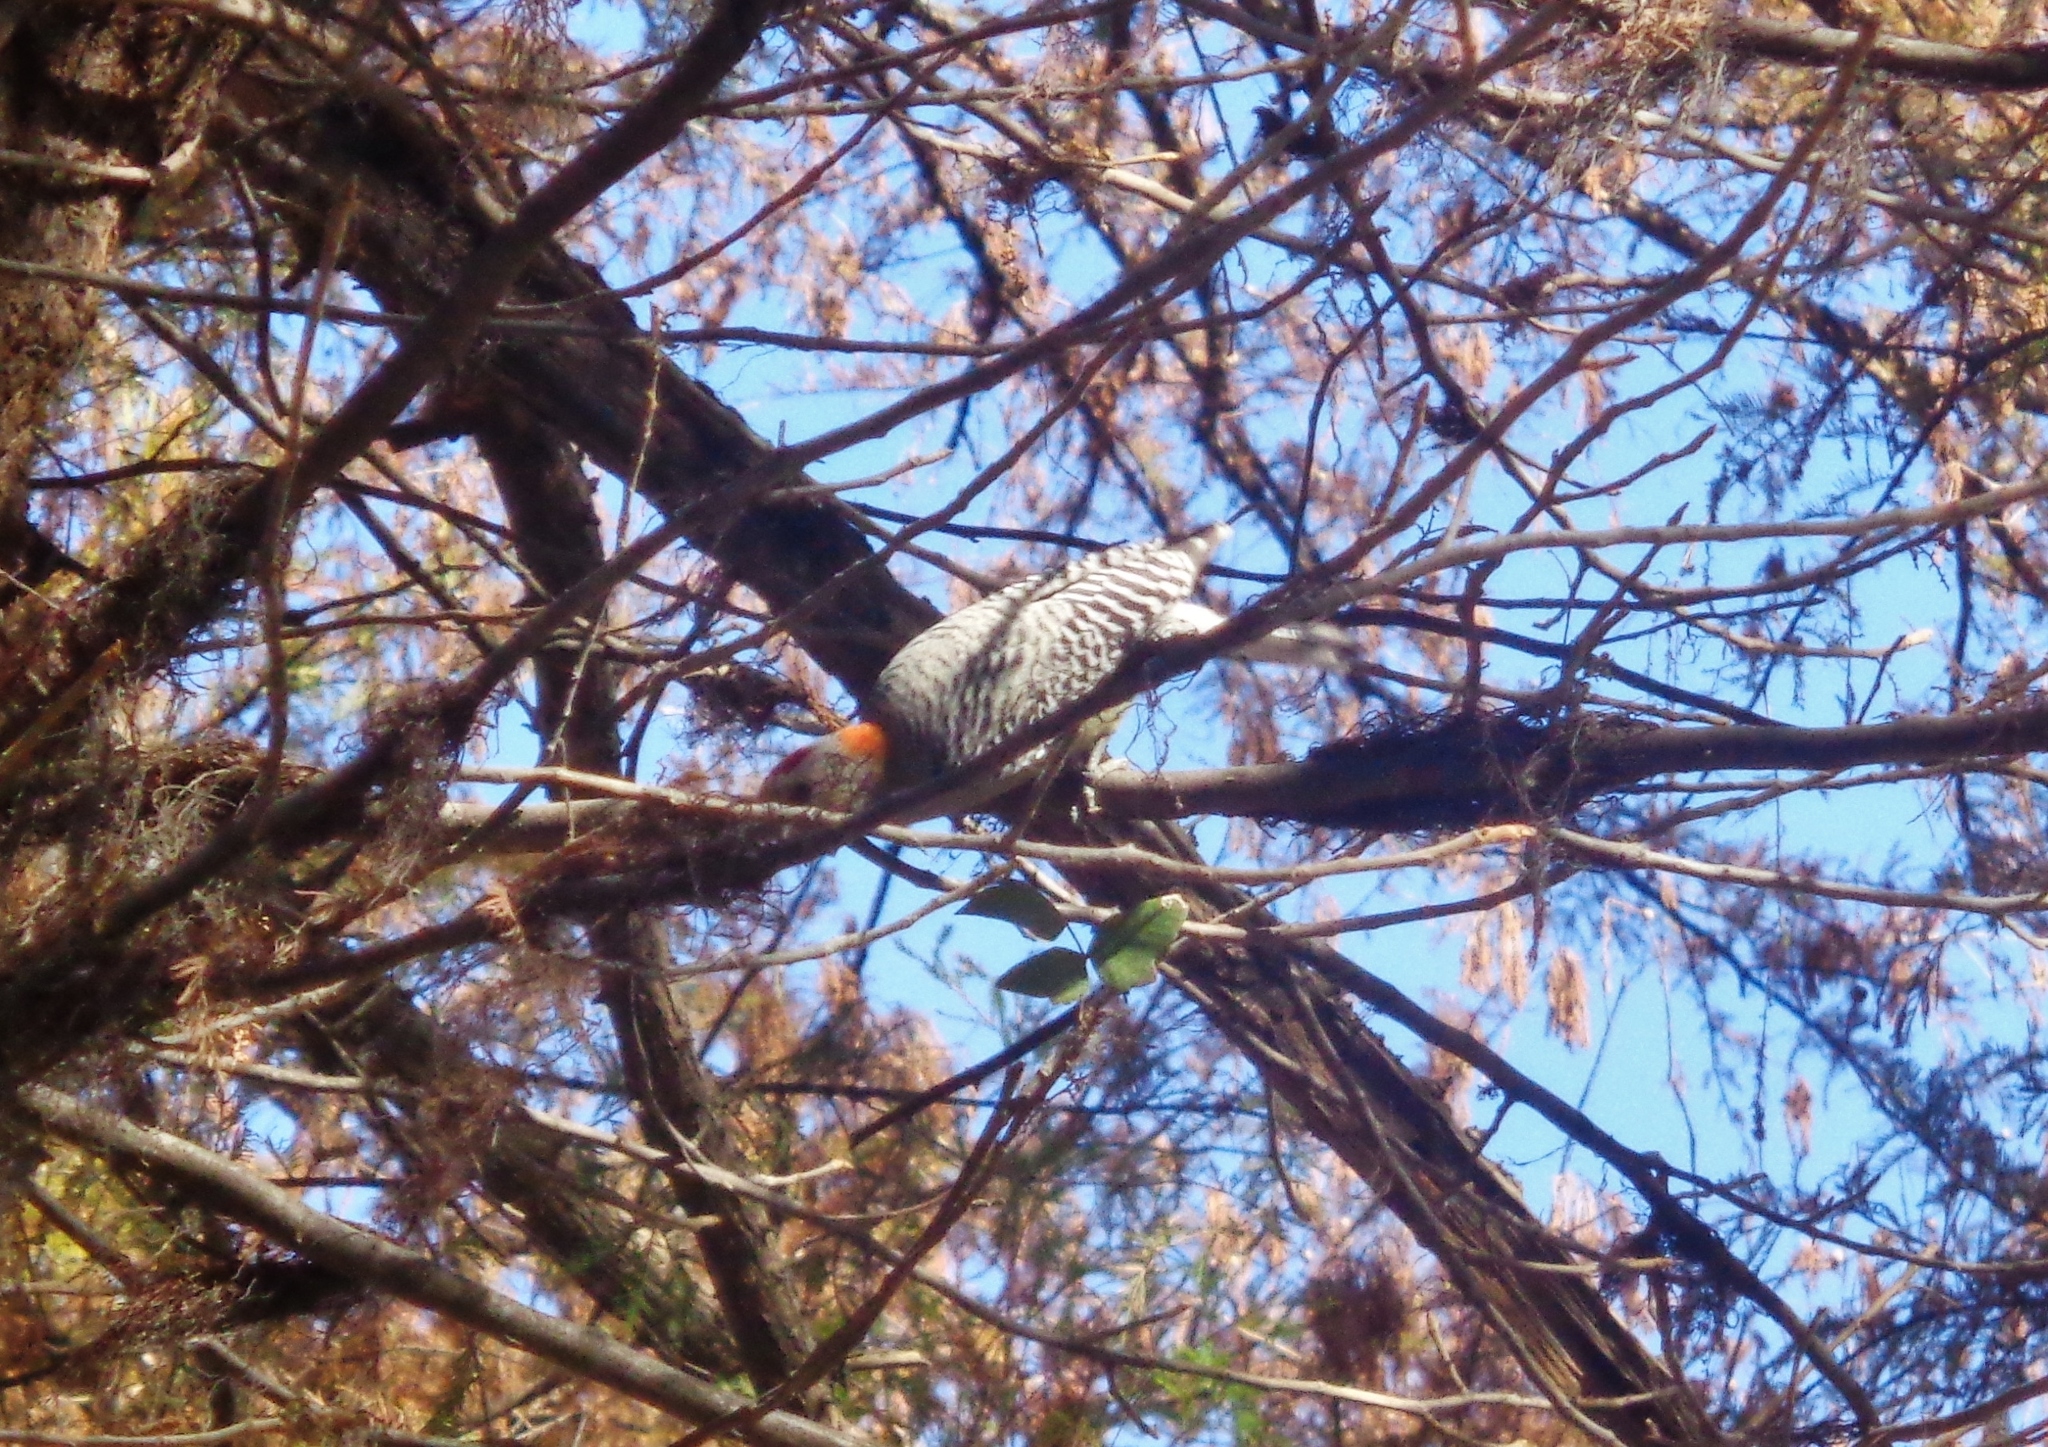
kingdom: Animalia
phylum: Chordata
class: Aves
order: Piciformes
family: Picidae
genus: Melanerpes
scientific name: Melanerpes aurifrons
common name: Golden-fronted woodpecker
